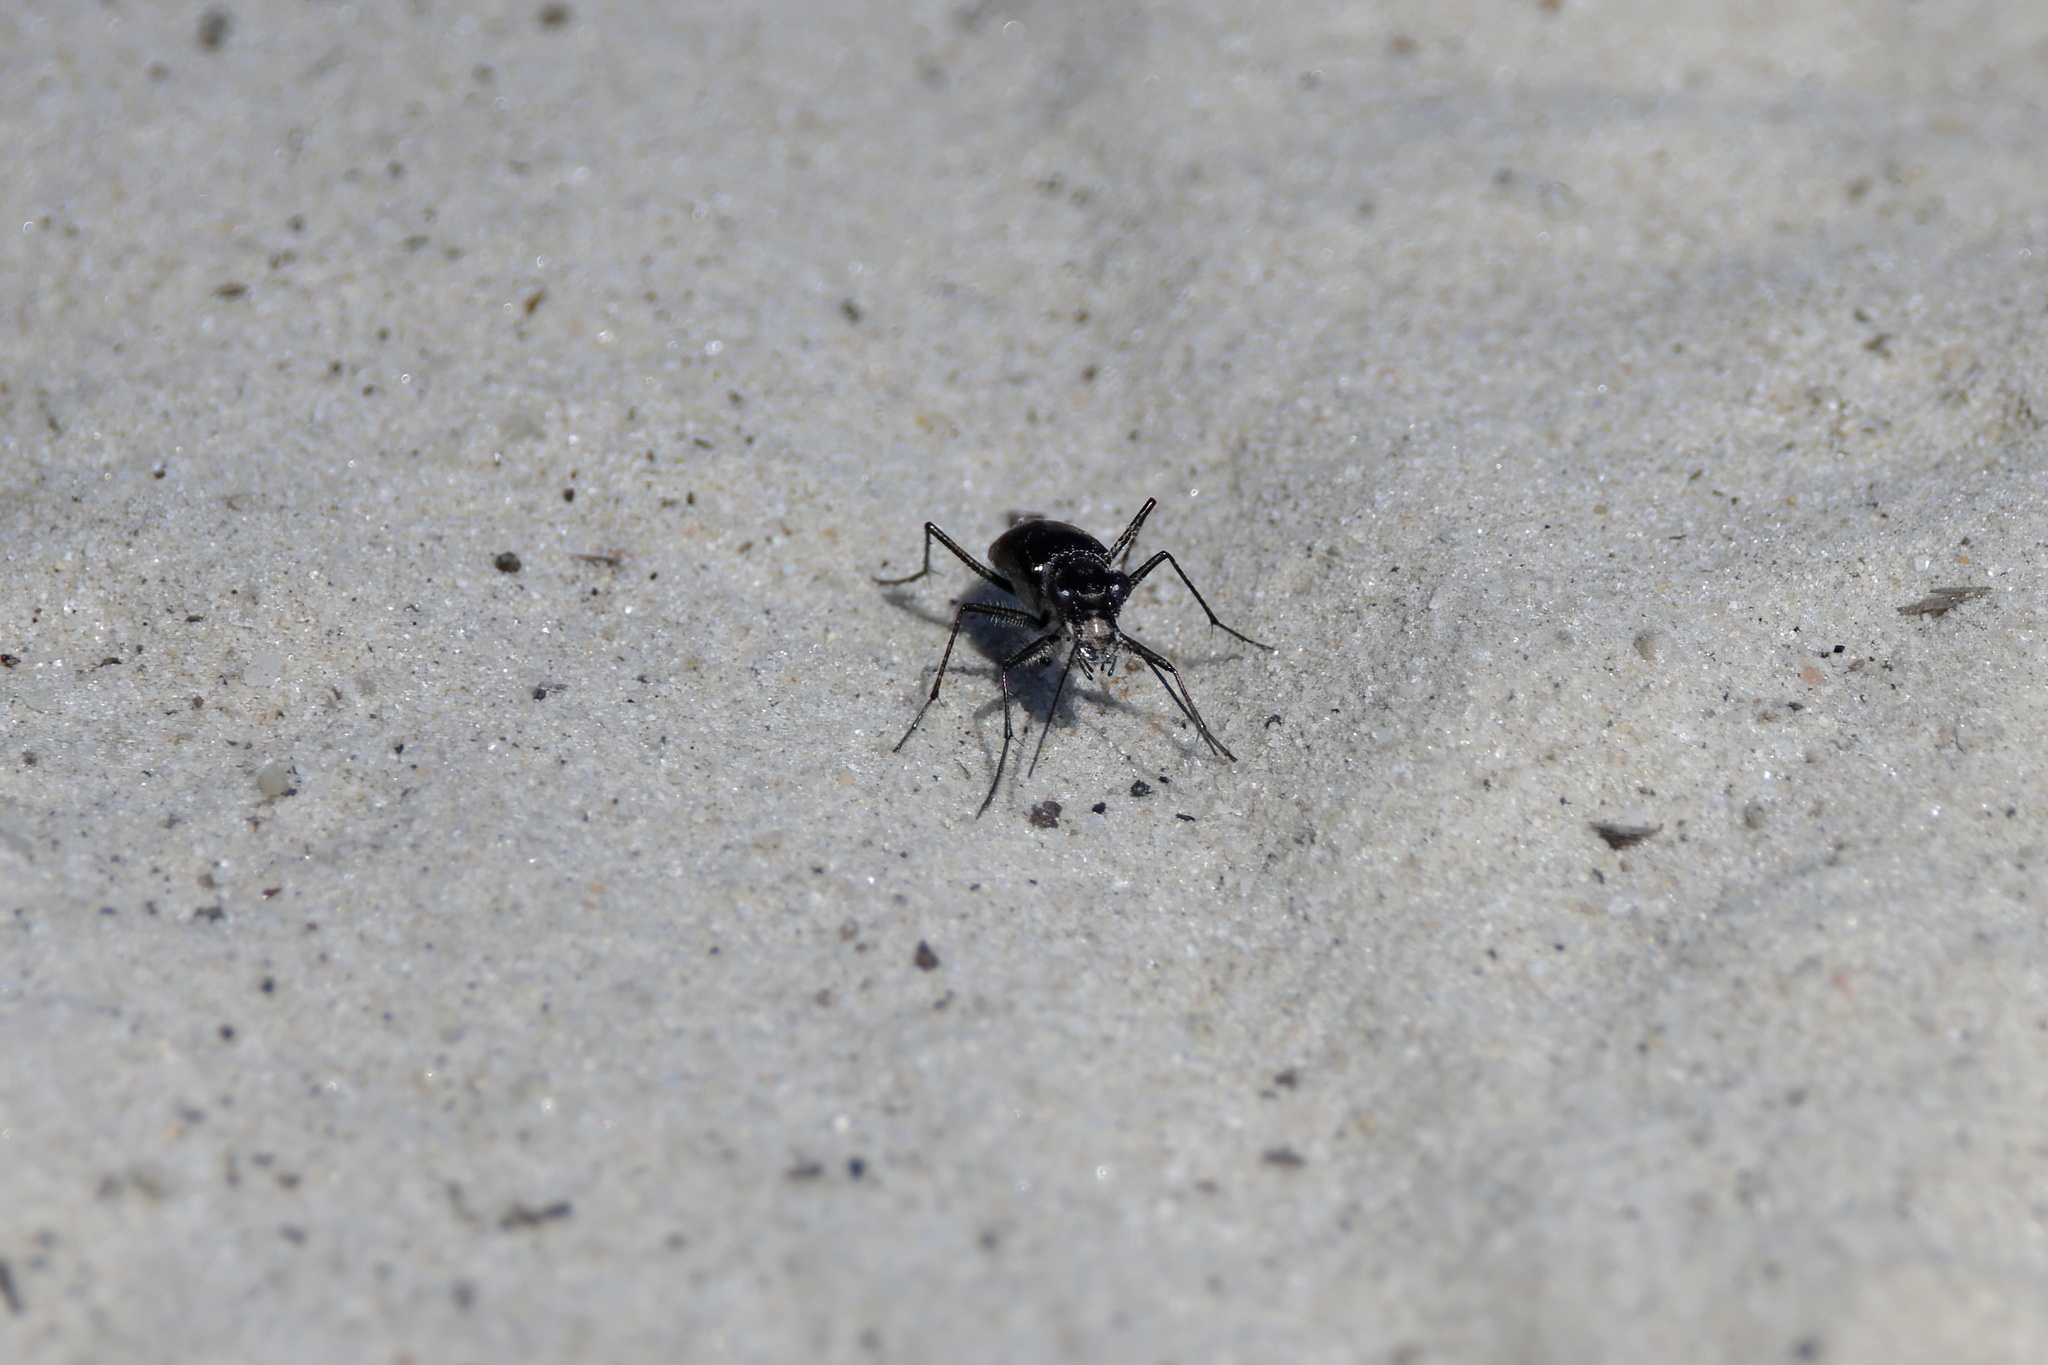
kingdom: Animalia
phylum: Arthropoda
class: Insecta
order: Coleoptera
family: Carabidae
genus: Cicindela
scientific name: Cicindela punctulata
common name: Punctured tiger beetle
